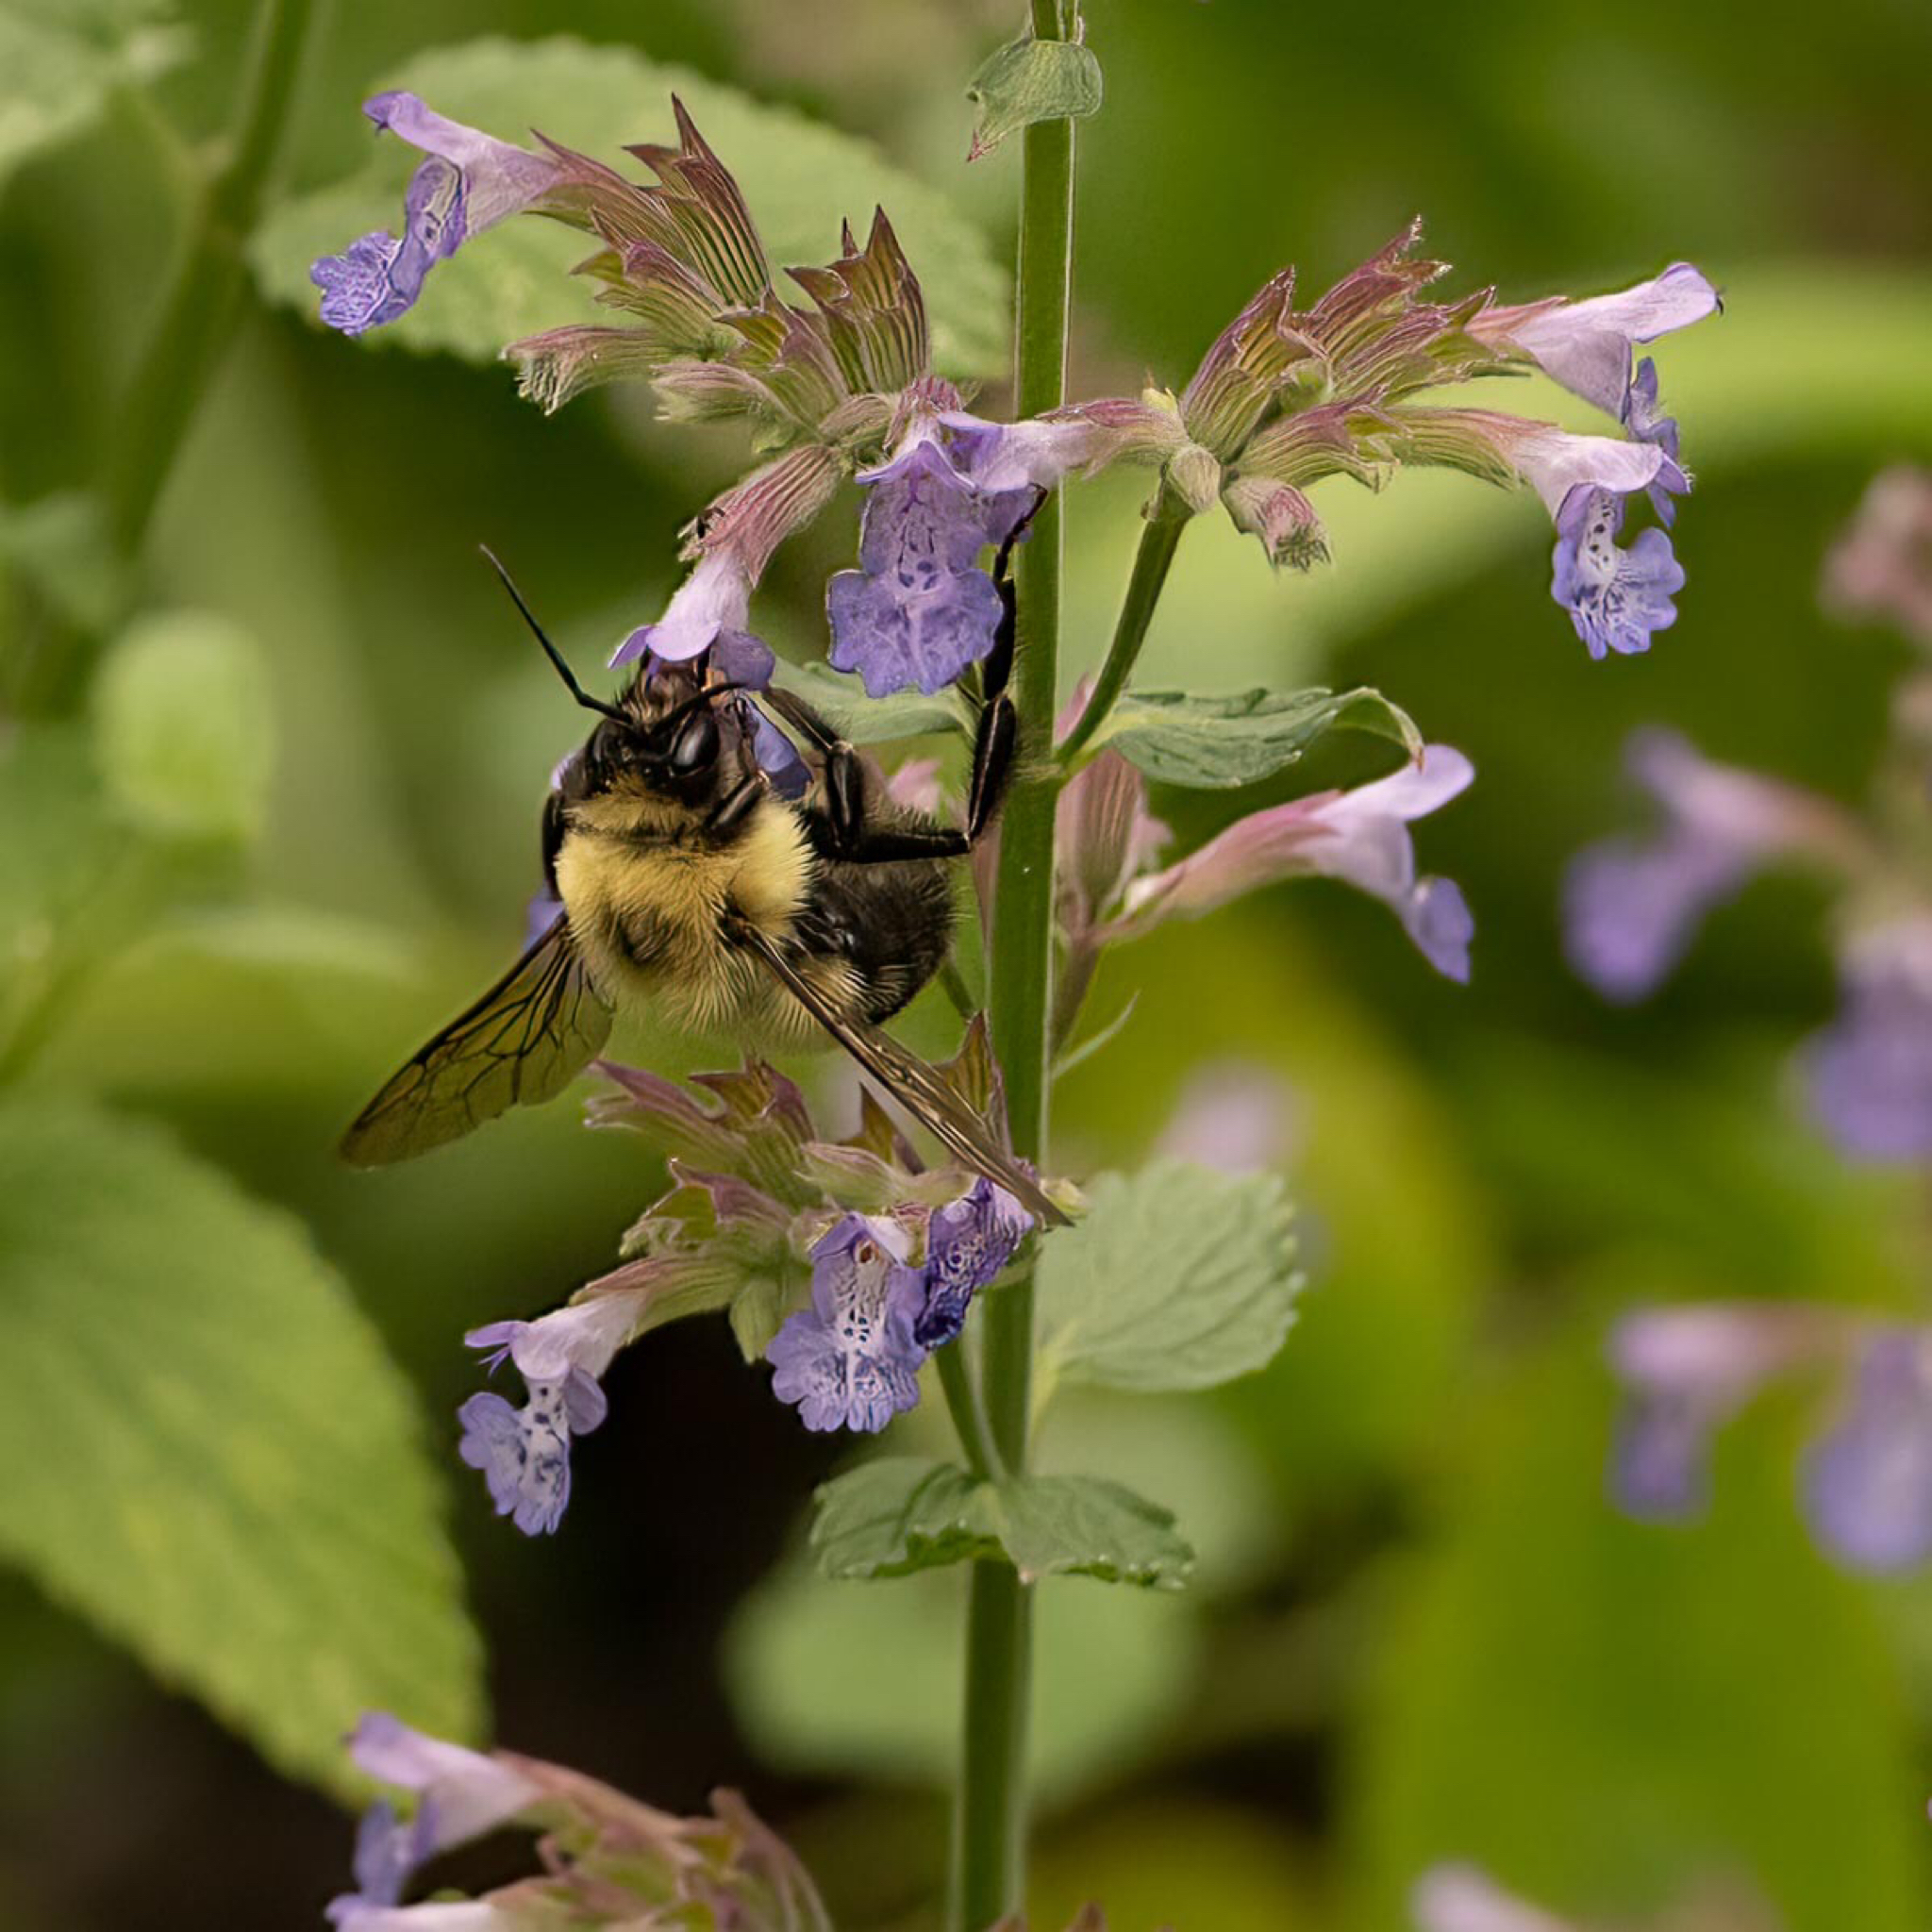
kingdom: Animalia
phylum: Arthropoda
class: Insecta
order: Hymenoptera
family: Apidae
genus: Bombus
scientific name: Bombus bimaculatus
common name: Two-spotted bumble bee
